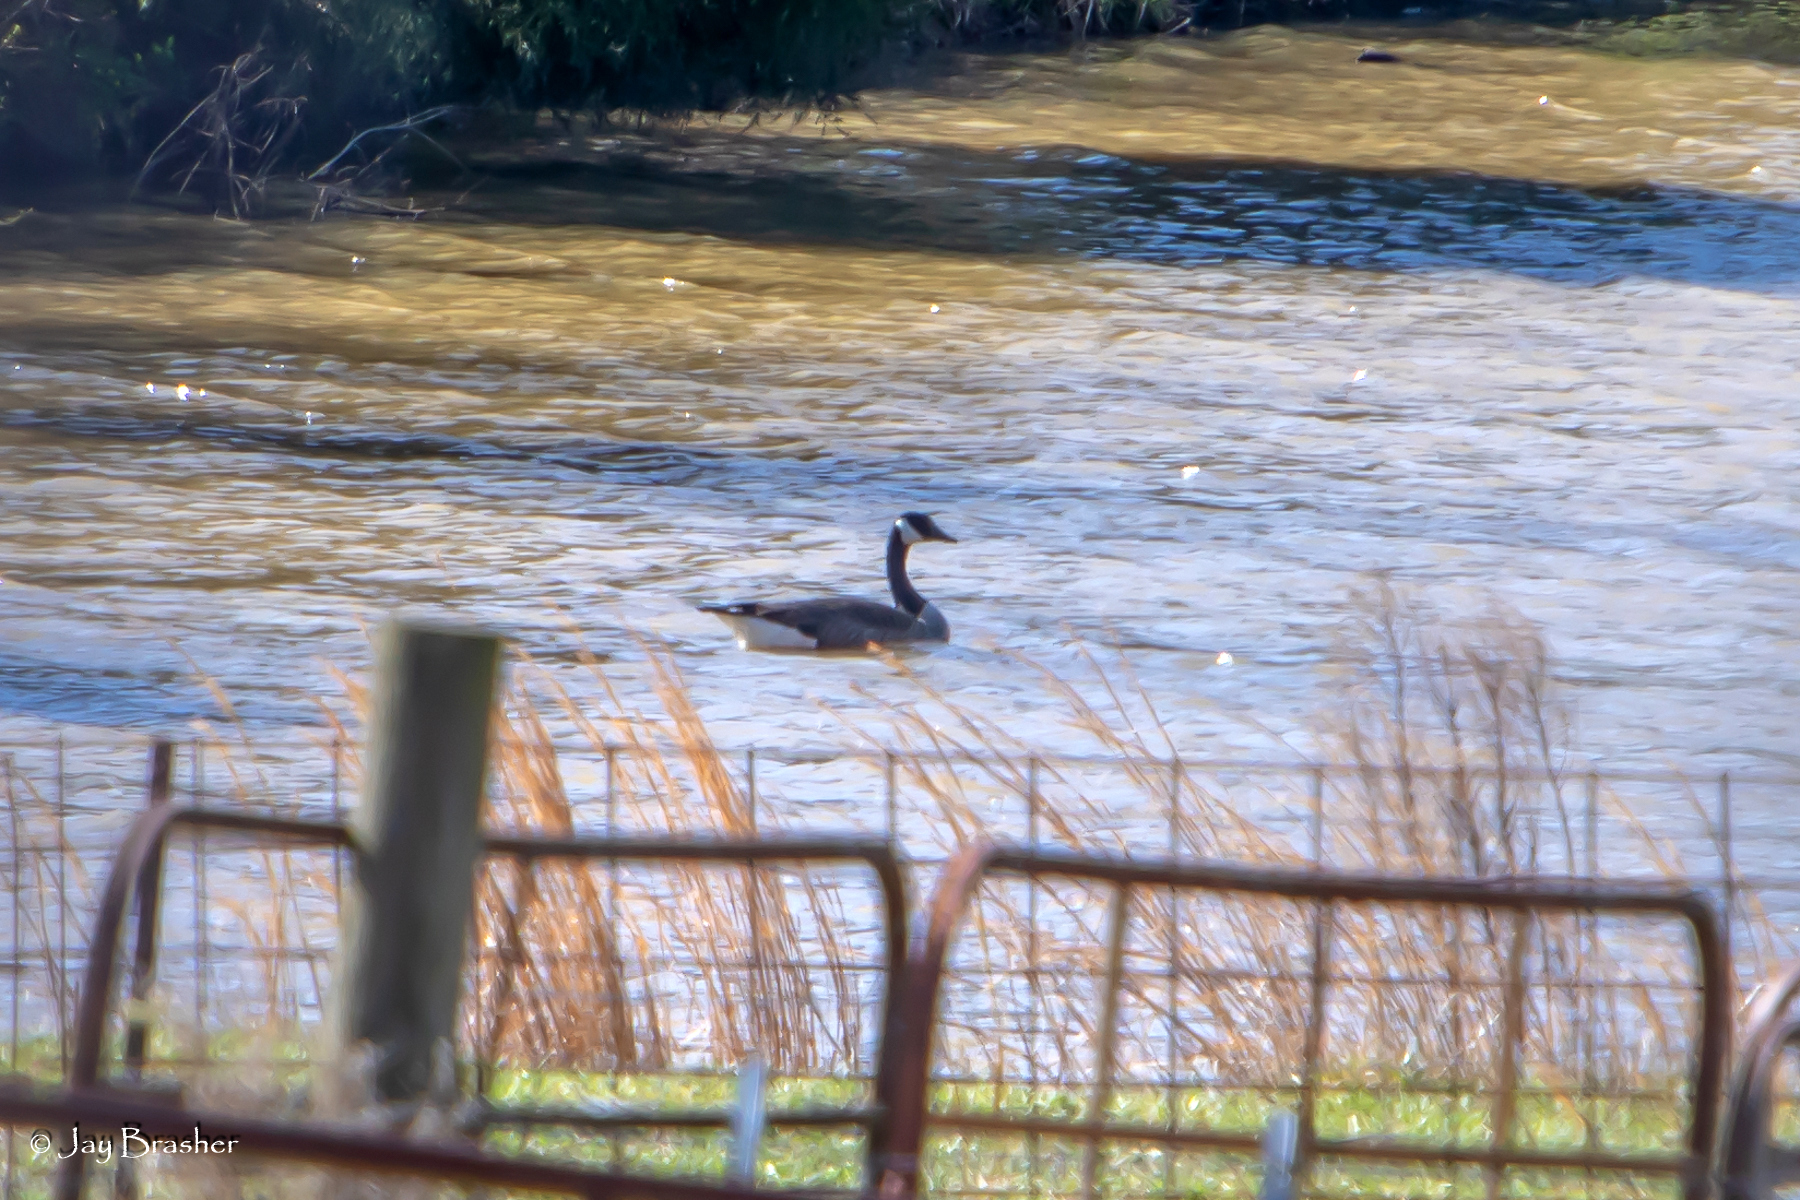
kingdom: Animalia
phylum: Chordata
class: Aves
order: Anseriformes
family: Anatidae
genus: Branta
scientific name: Branta canadensis
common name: Canada goose
